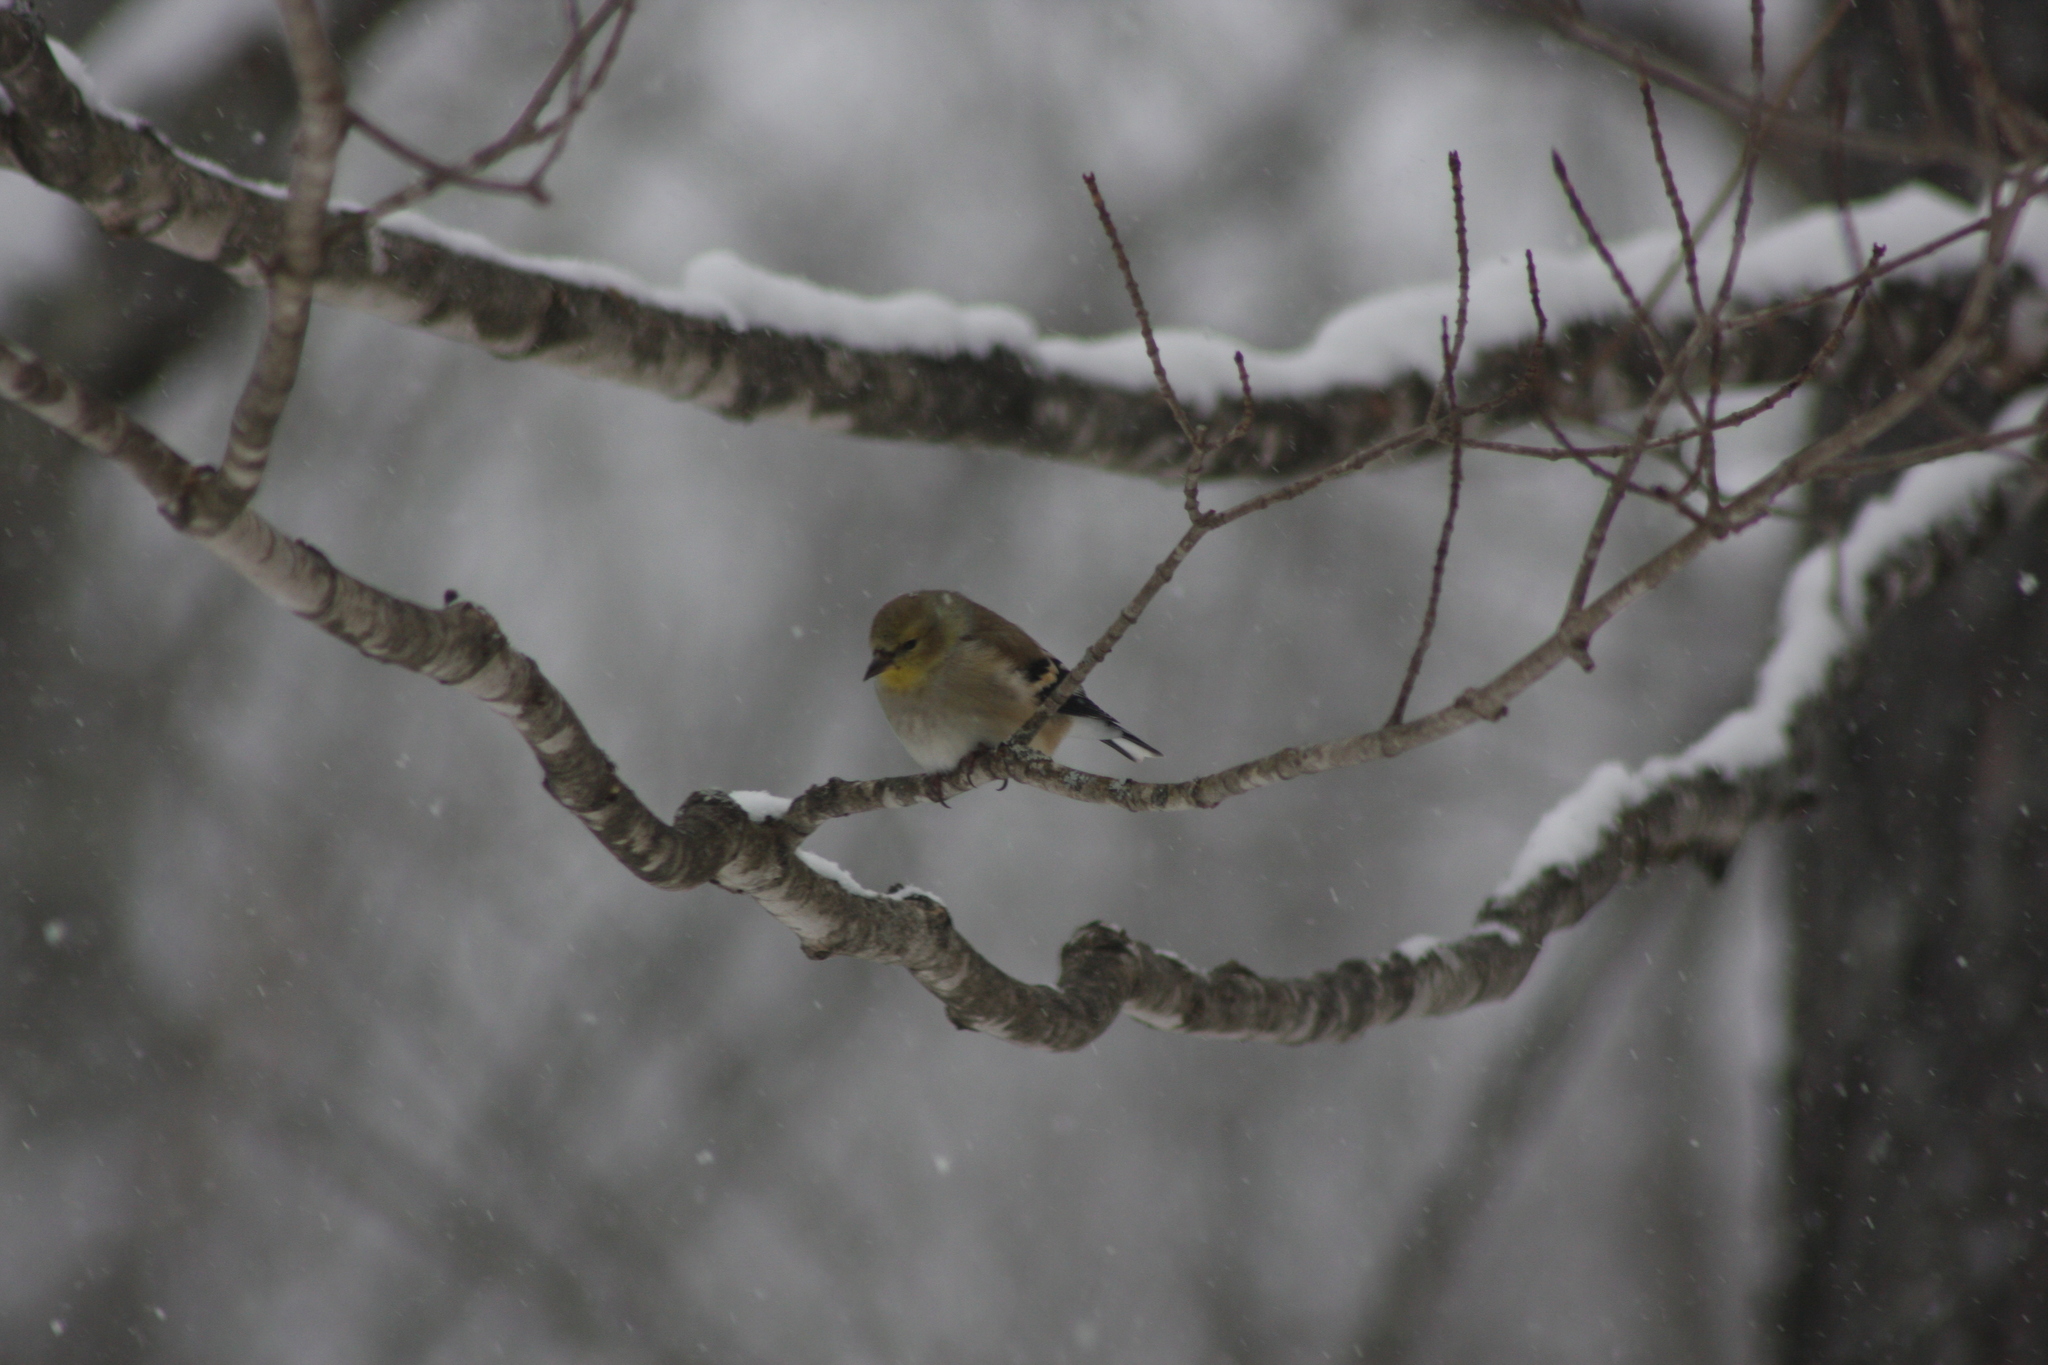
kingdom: Animalia
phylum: Chordata
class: Aves
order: Passeriformes
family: Fringillidae
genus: Spinus
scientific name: Spinus tristis
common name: American goldfinch
